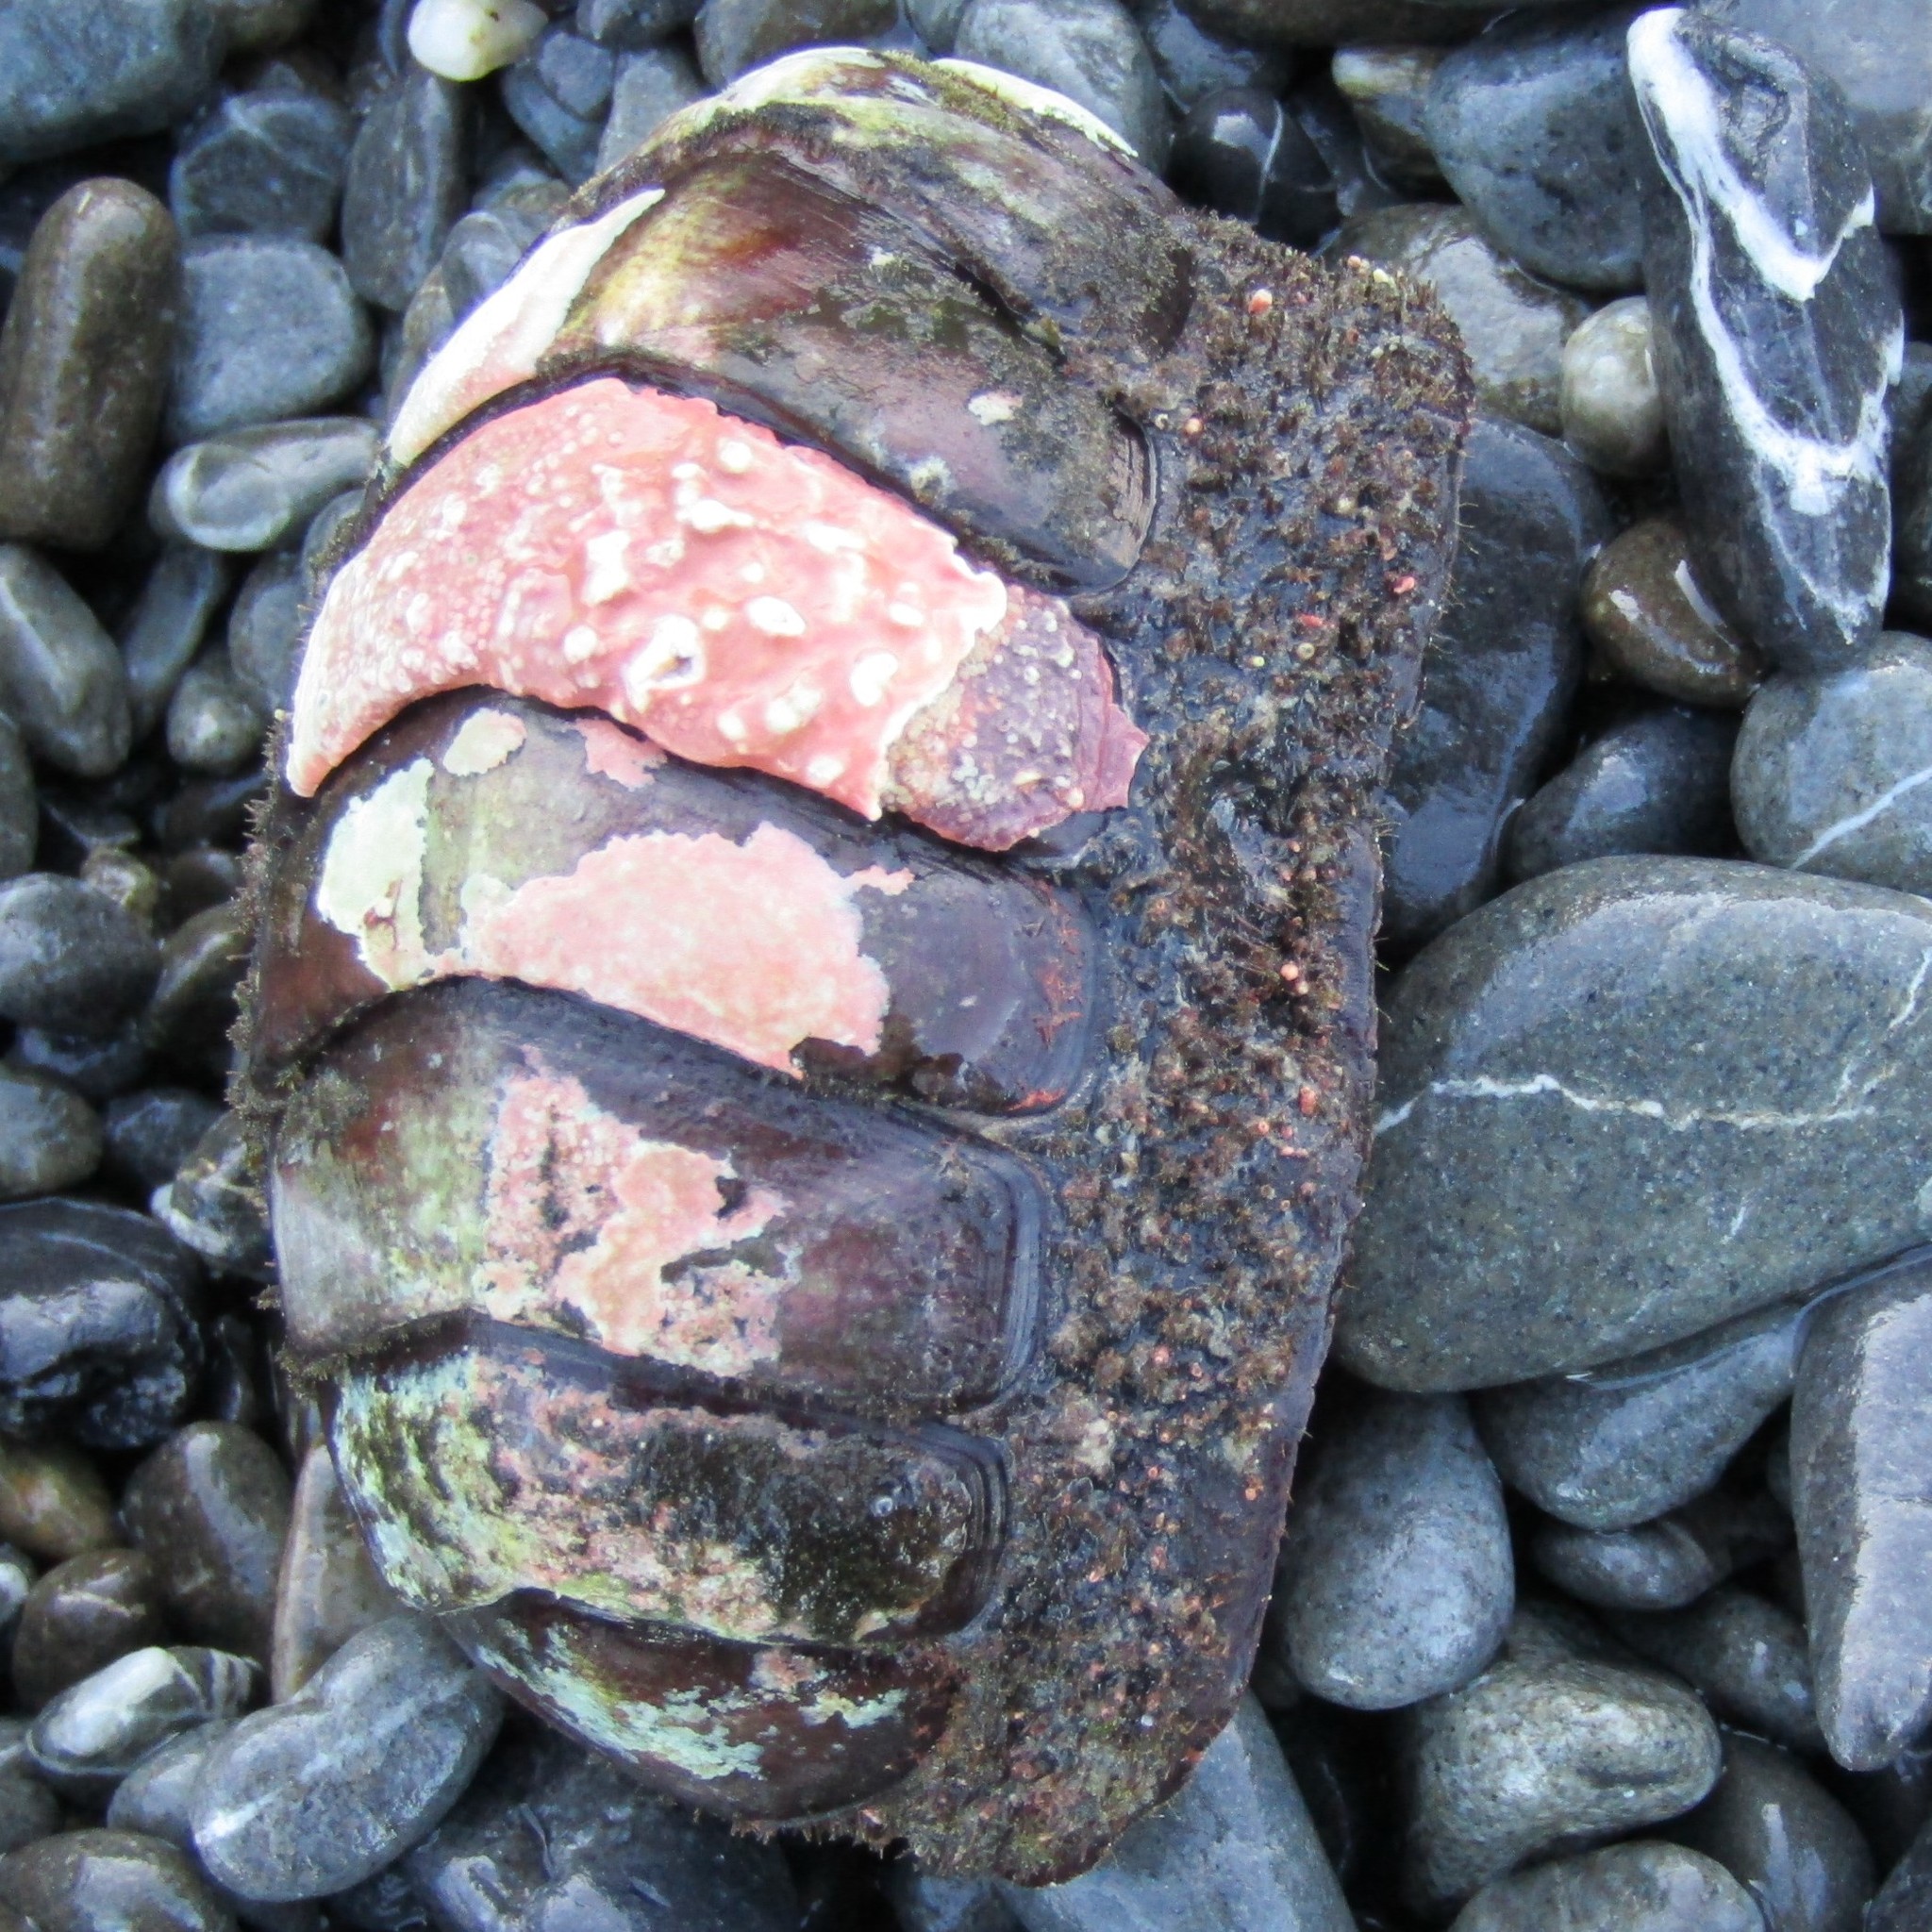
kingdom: Animalia
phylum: Mollusca
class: Polyplacophora
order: Callochitonida
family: Callochitonidae
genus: Eudoxochiton
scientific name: Eudoxochiton nobilis
